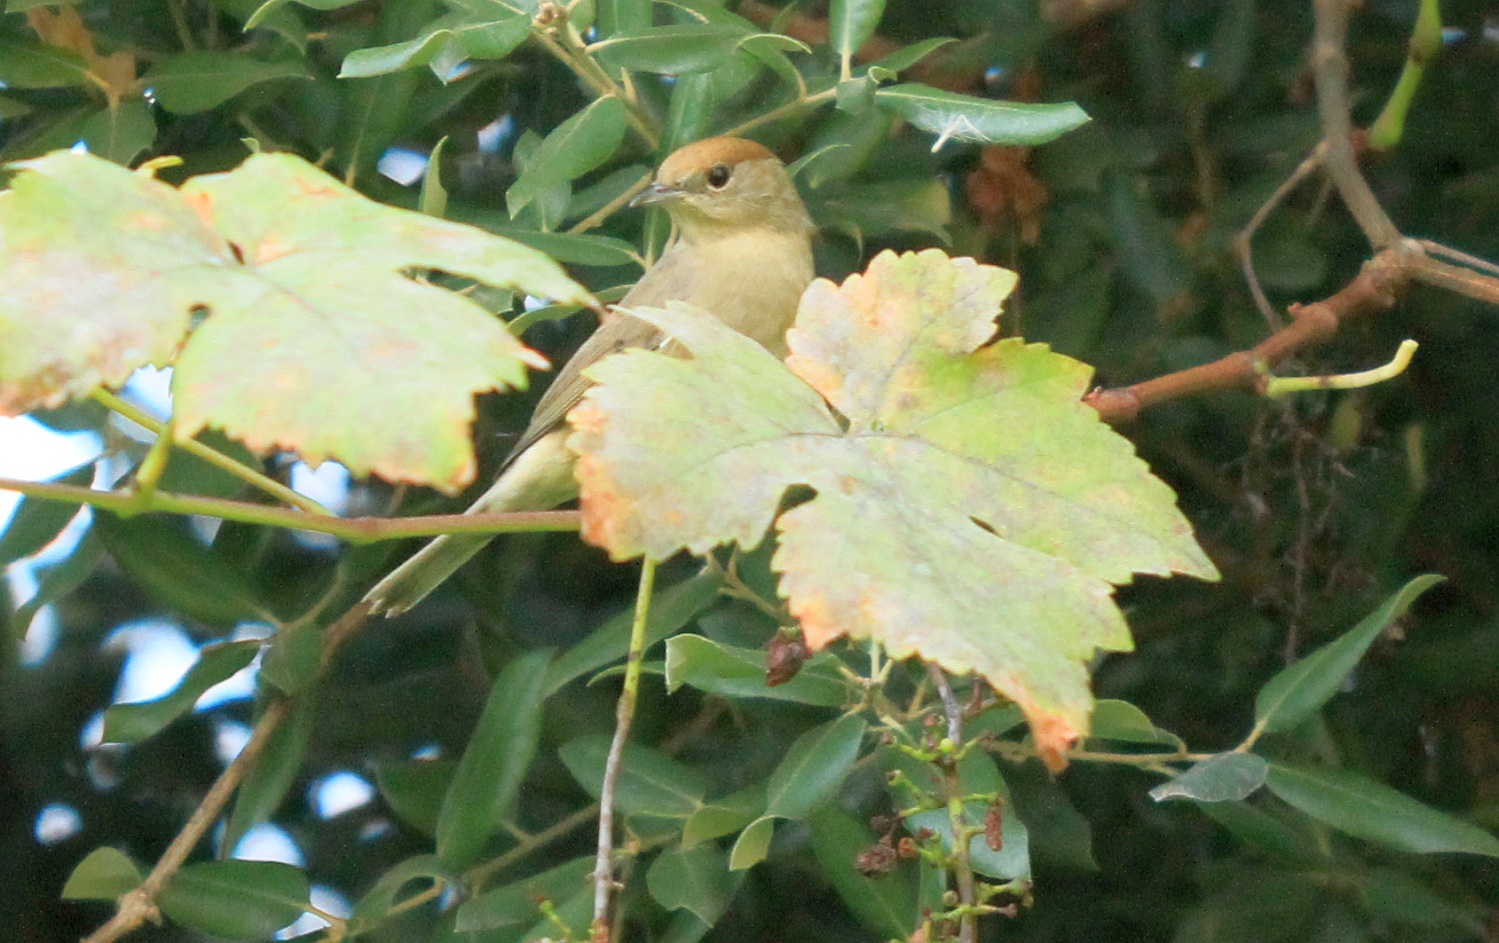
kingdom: Animalia
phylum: Chordata
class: Aves
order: Passeriformes
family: Sylviidae
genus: Sylvia
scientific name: Sylvia atricapilla
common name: Eurasian blackcap
